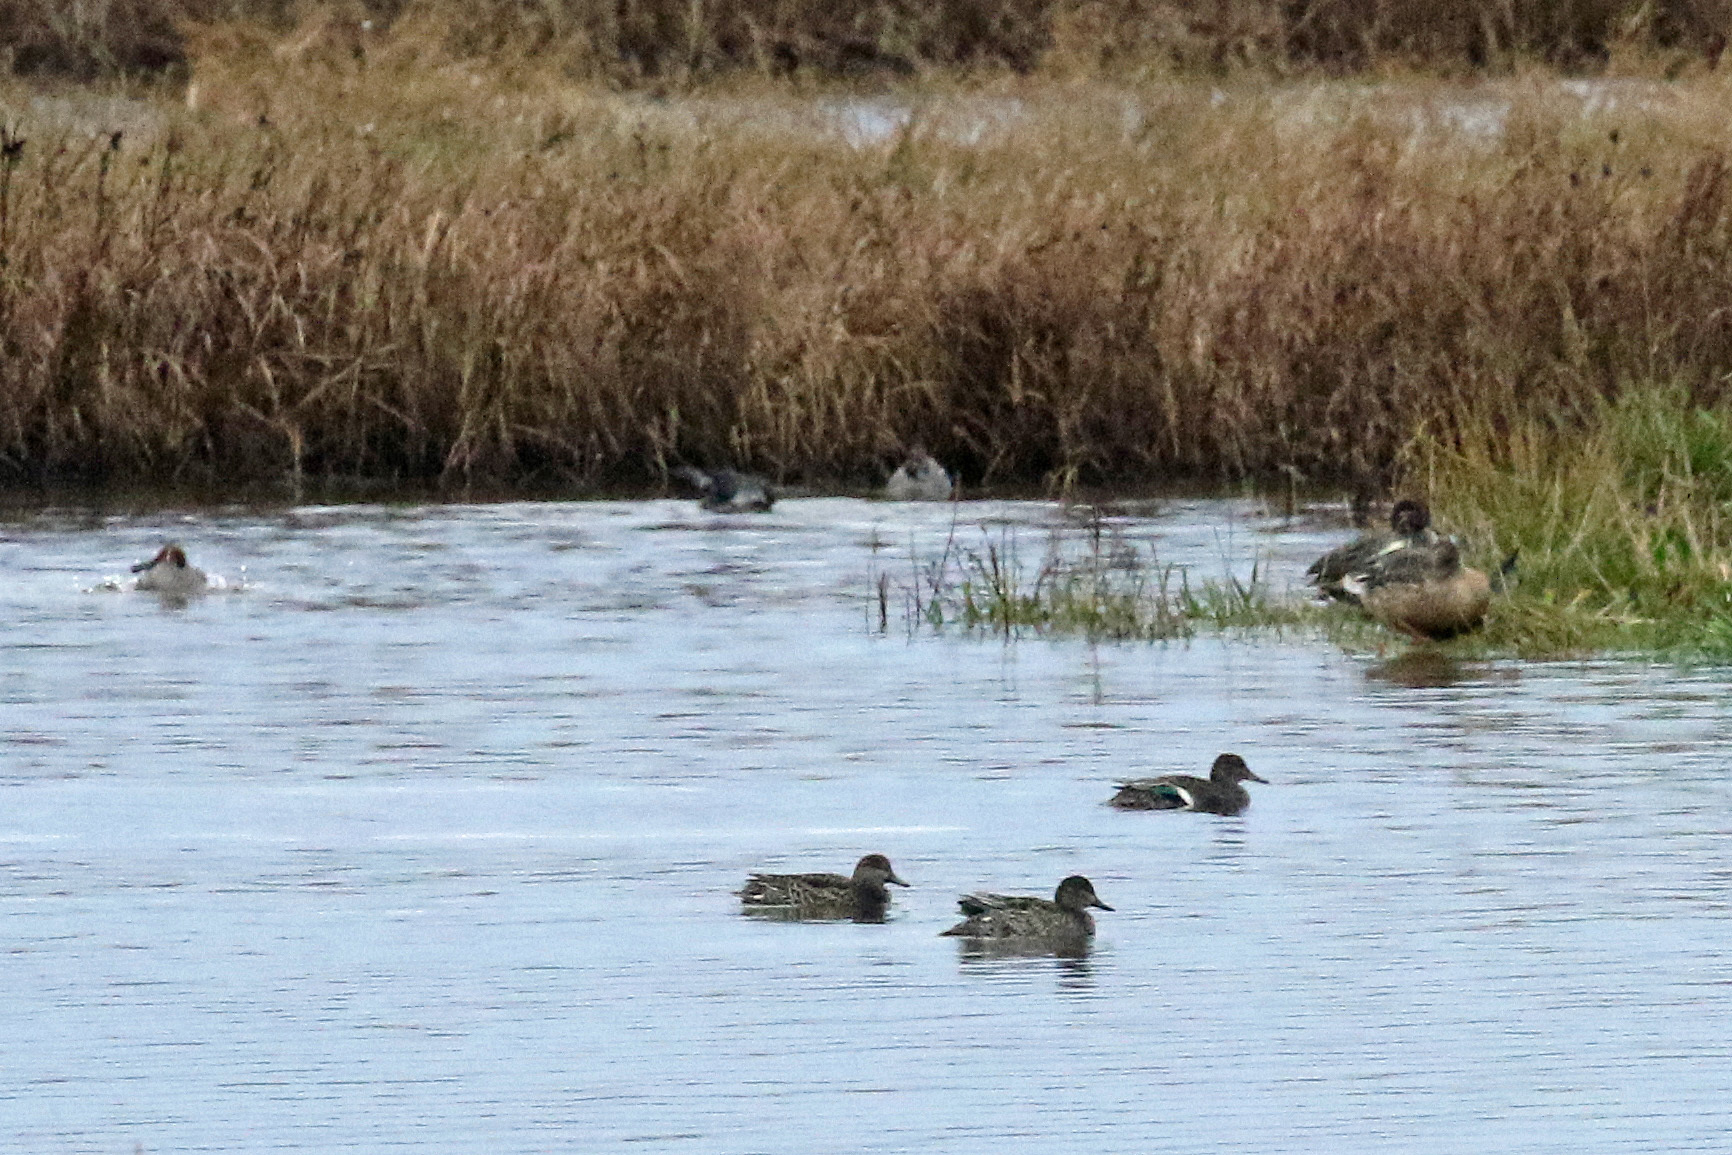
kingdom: Animalia
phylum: Chordata
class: Aves
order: Anseriformes
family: Anatidae
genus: Anas
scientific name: Anas crecca
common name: Eurasian teal
